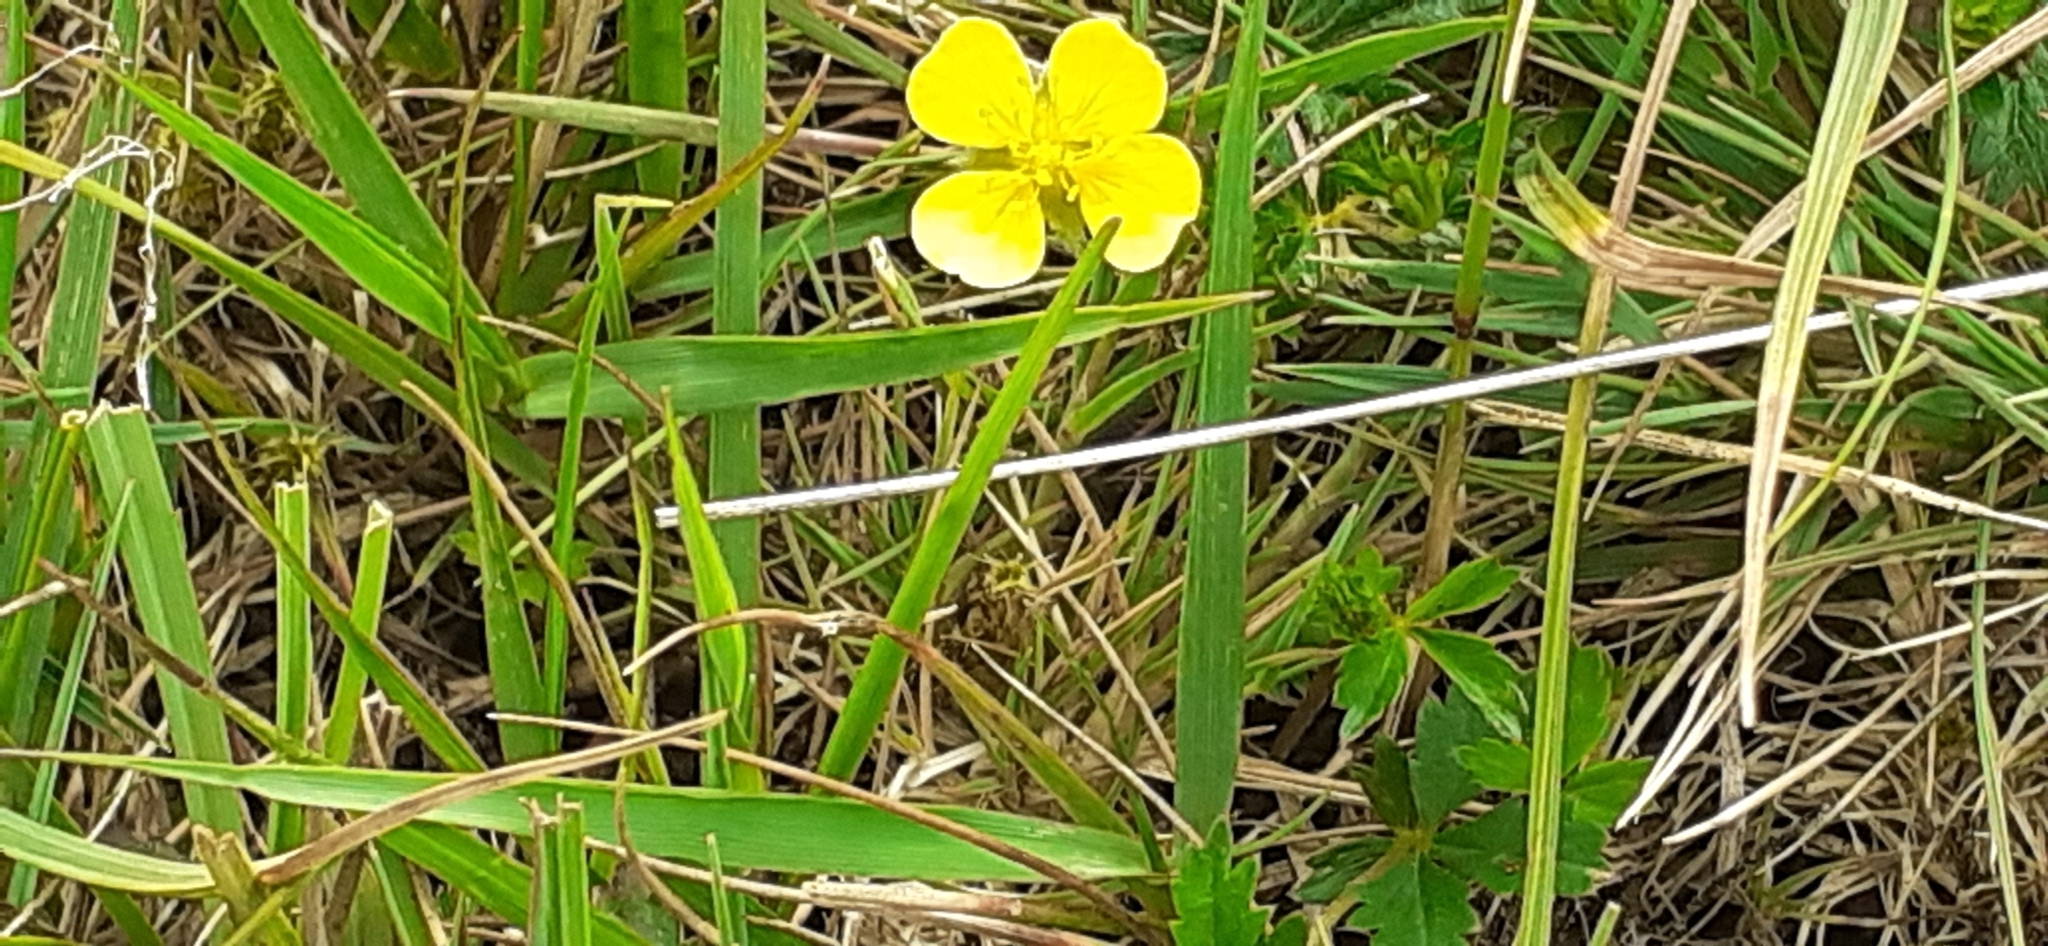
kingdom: Plantae
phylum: Tracheophyta
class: Magnoliopsida
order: Rosales
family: Rosaceae
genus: Potentilla
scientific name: Potentilla erecta
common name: Tormentil
